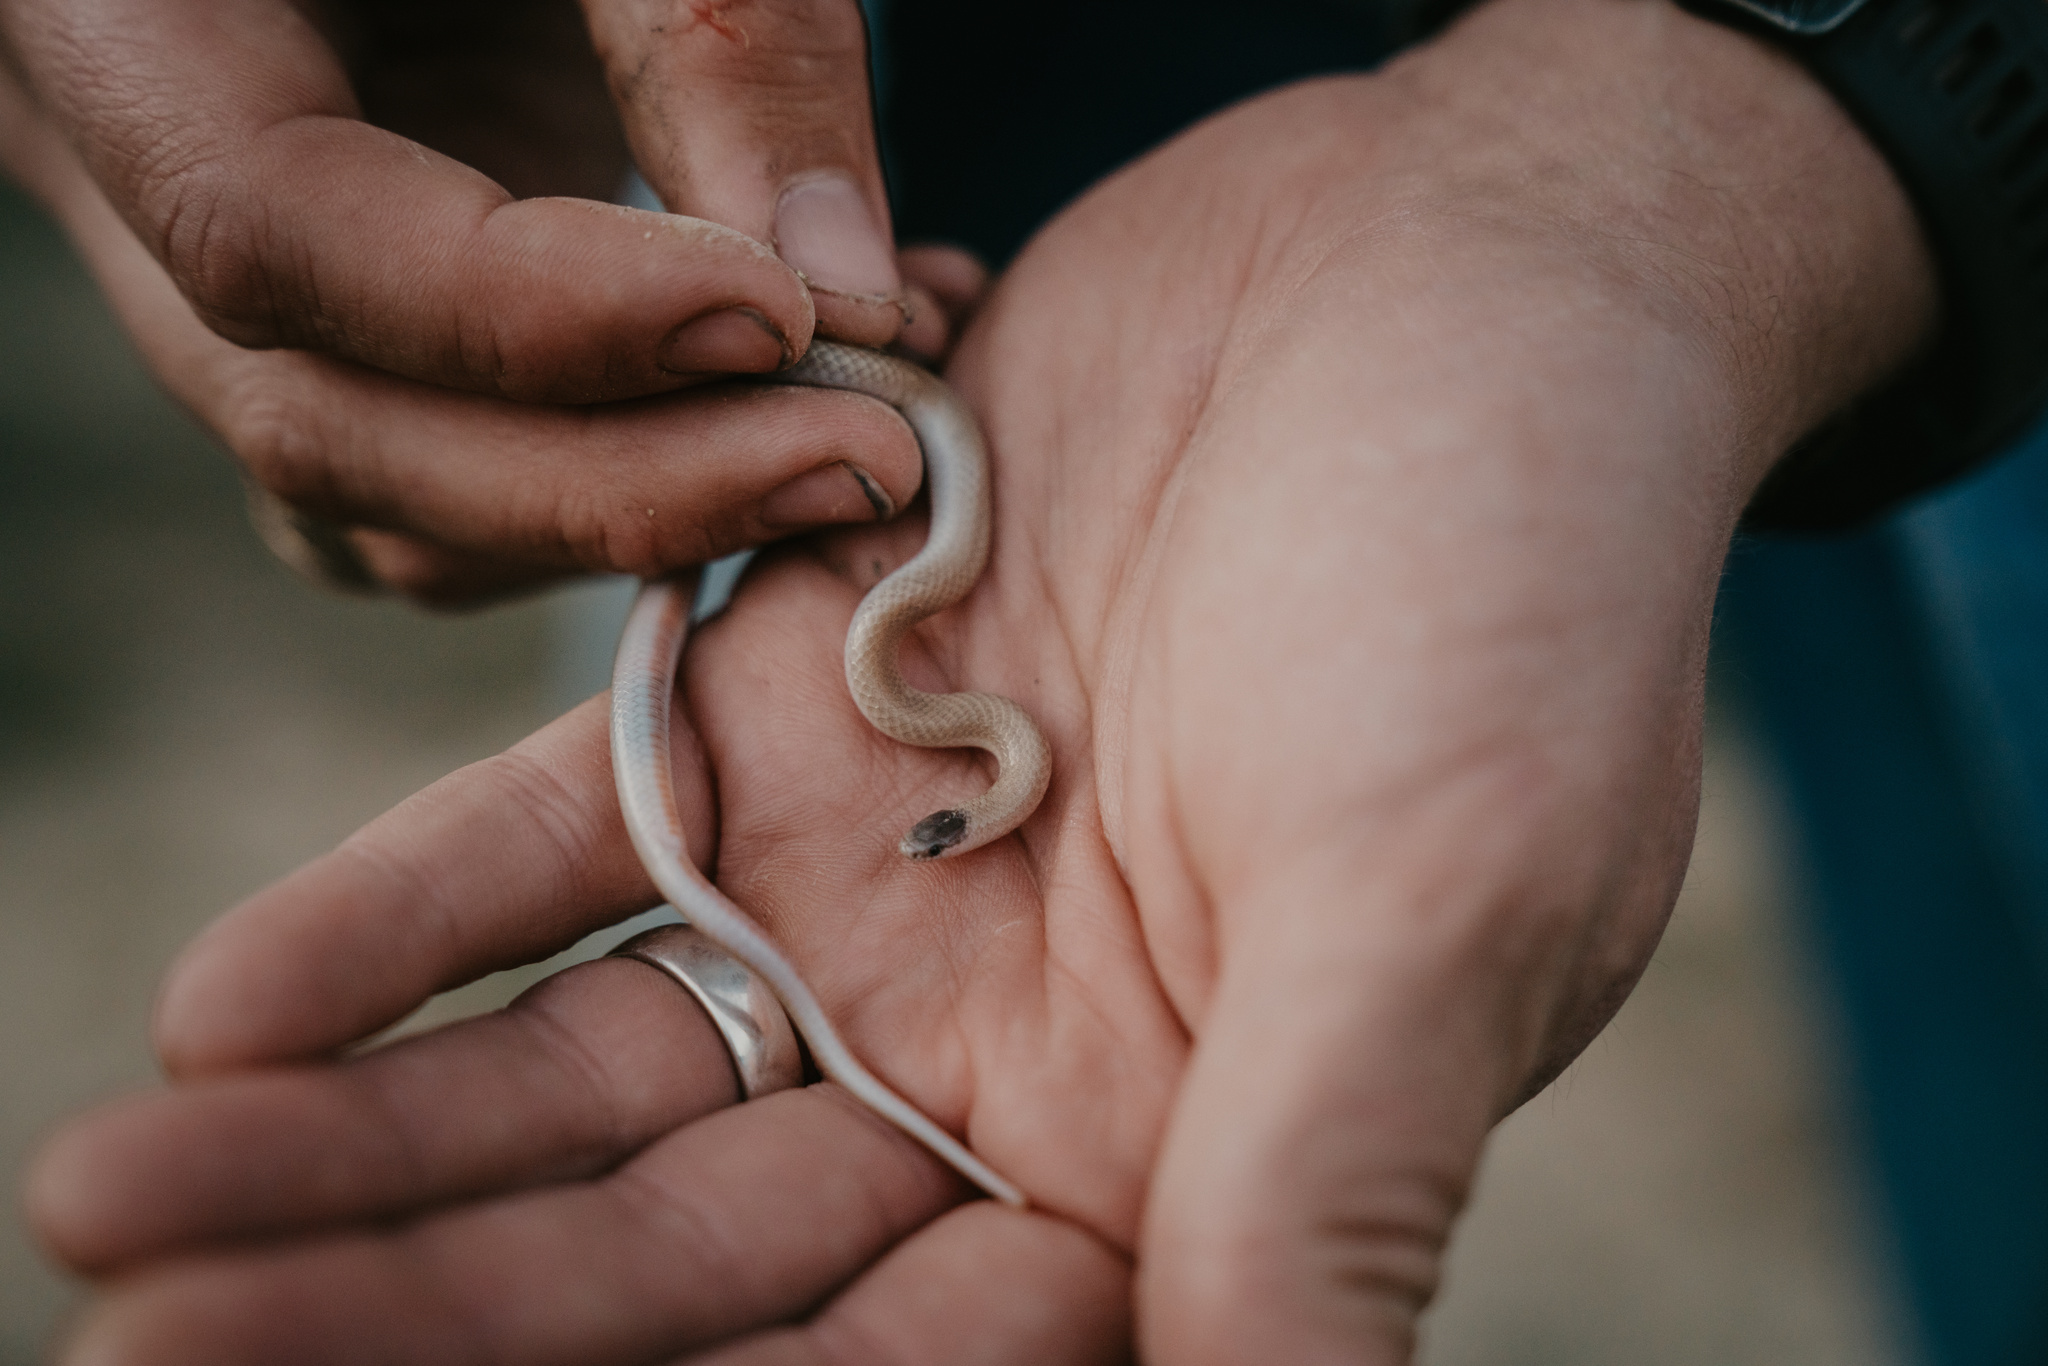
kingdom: Animalia
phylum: Chordata
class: Squamata
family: Colubridae
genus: Tantilla
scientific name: Tantilla nigriceps
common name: Plains blackhead snake
